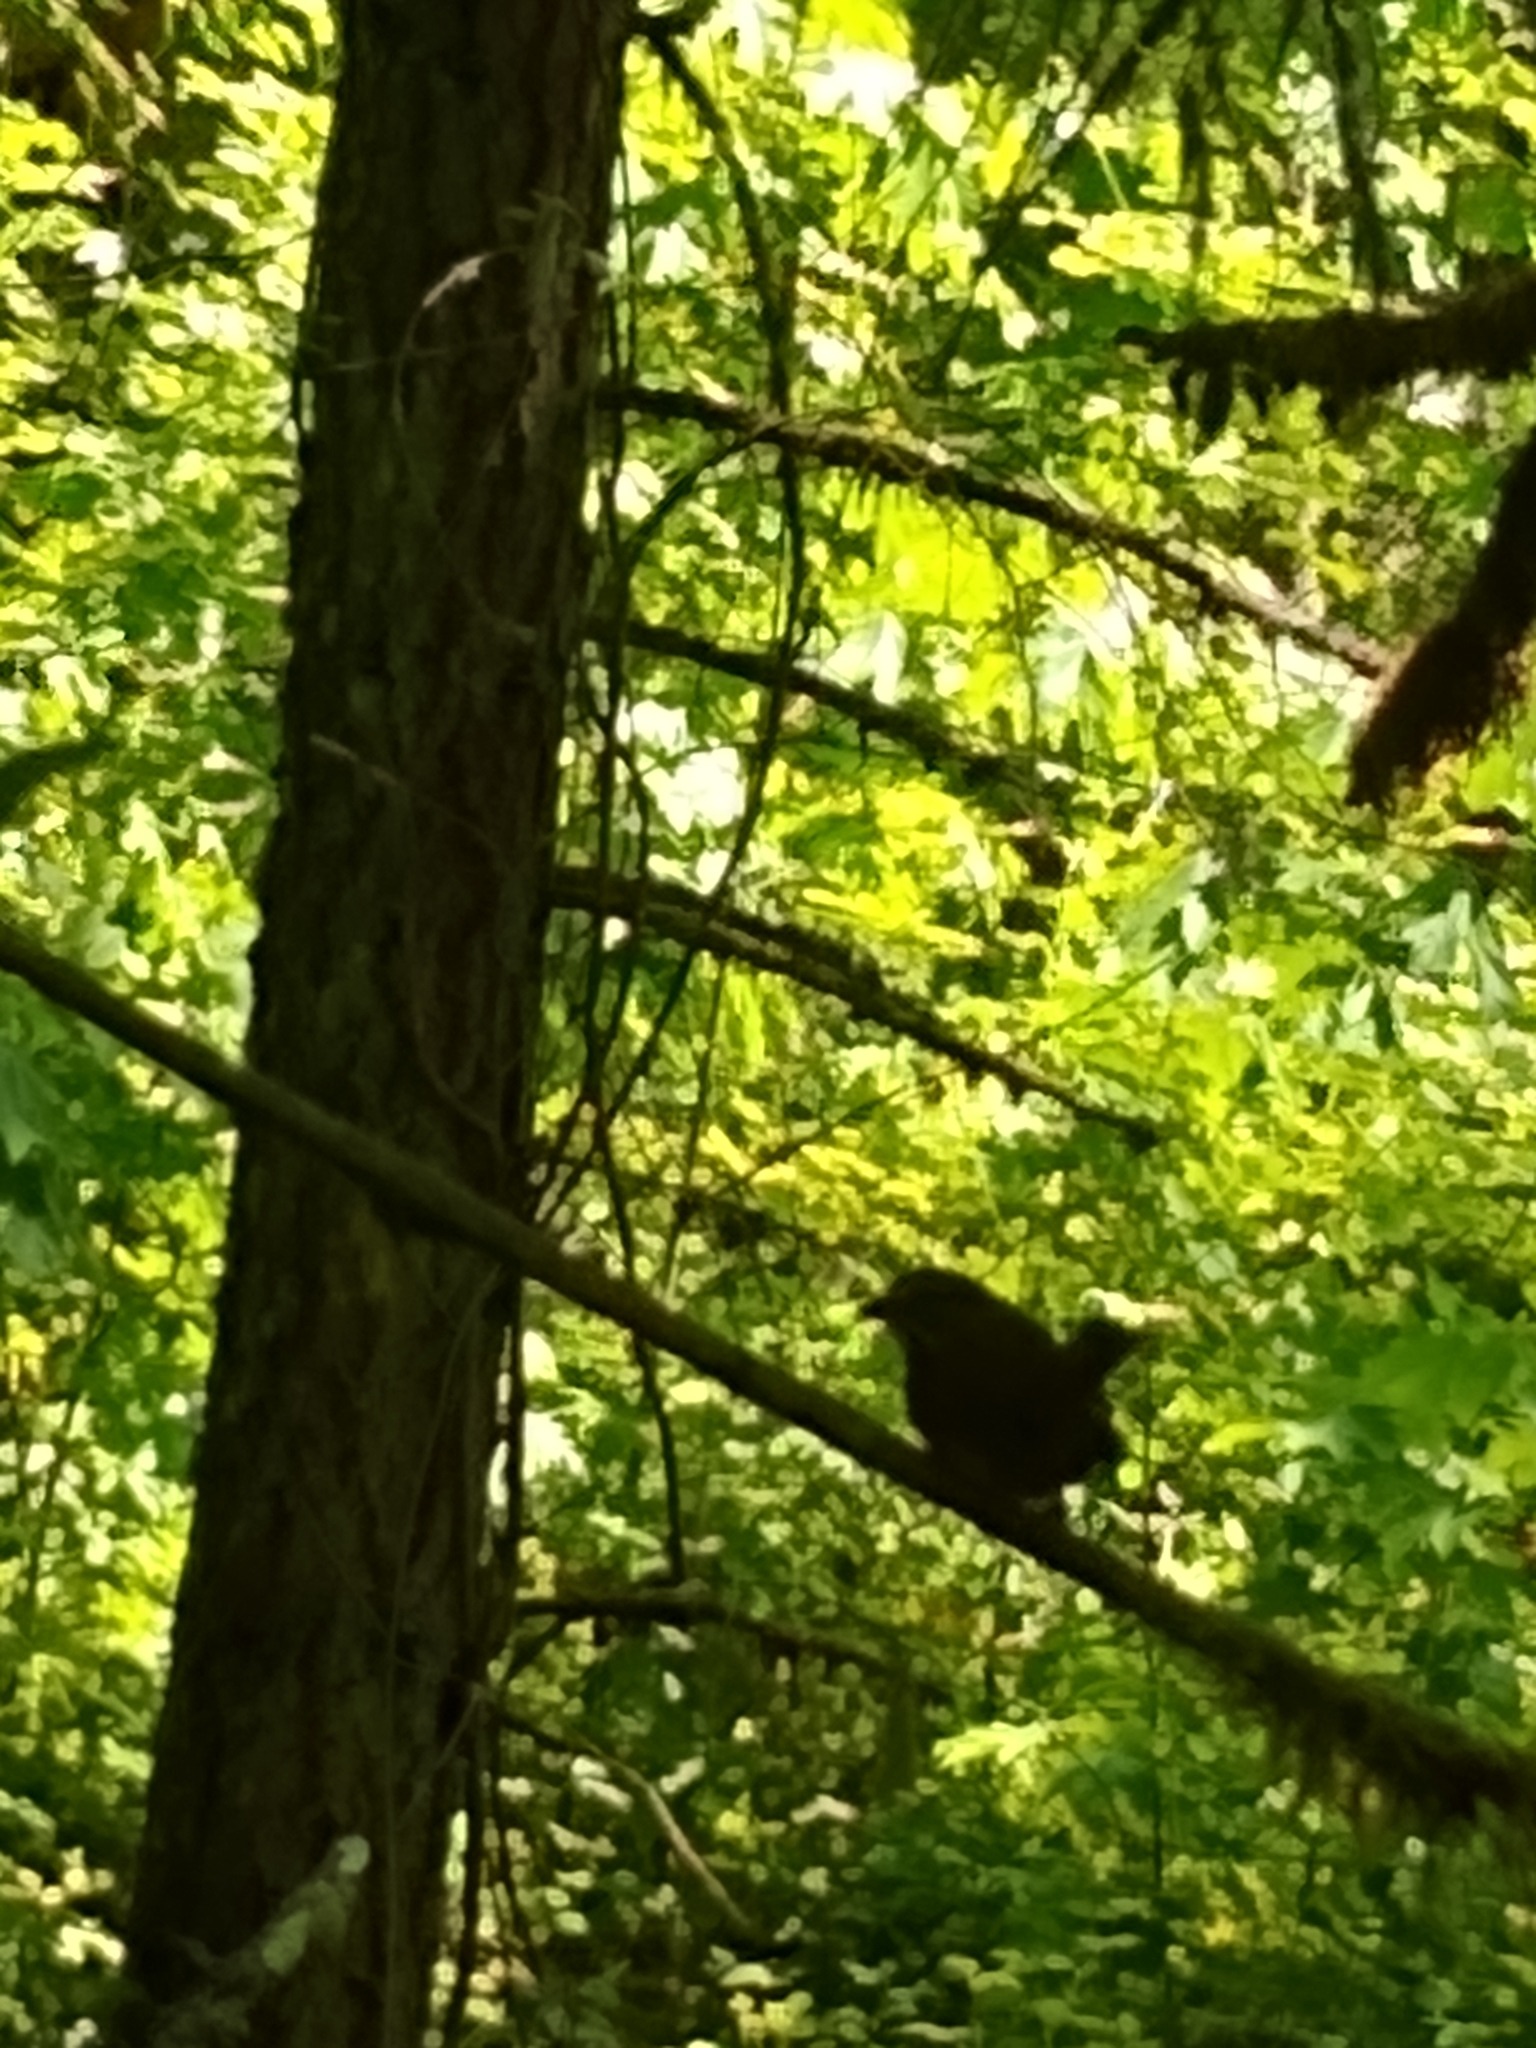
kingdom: Animalia
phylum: Chordata
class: Aves
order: Passeriformes
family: Passerellidae
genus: Melospiza
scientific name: Melospiza melodia
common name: Song sparrow
